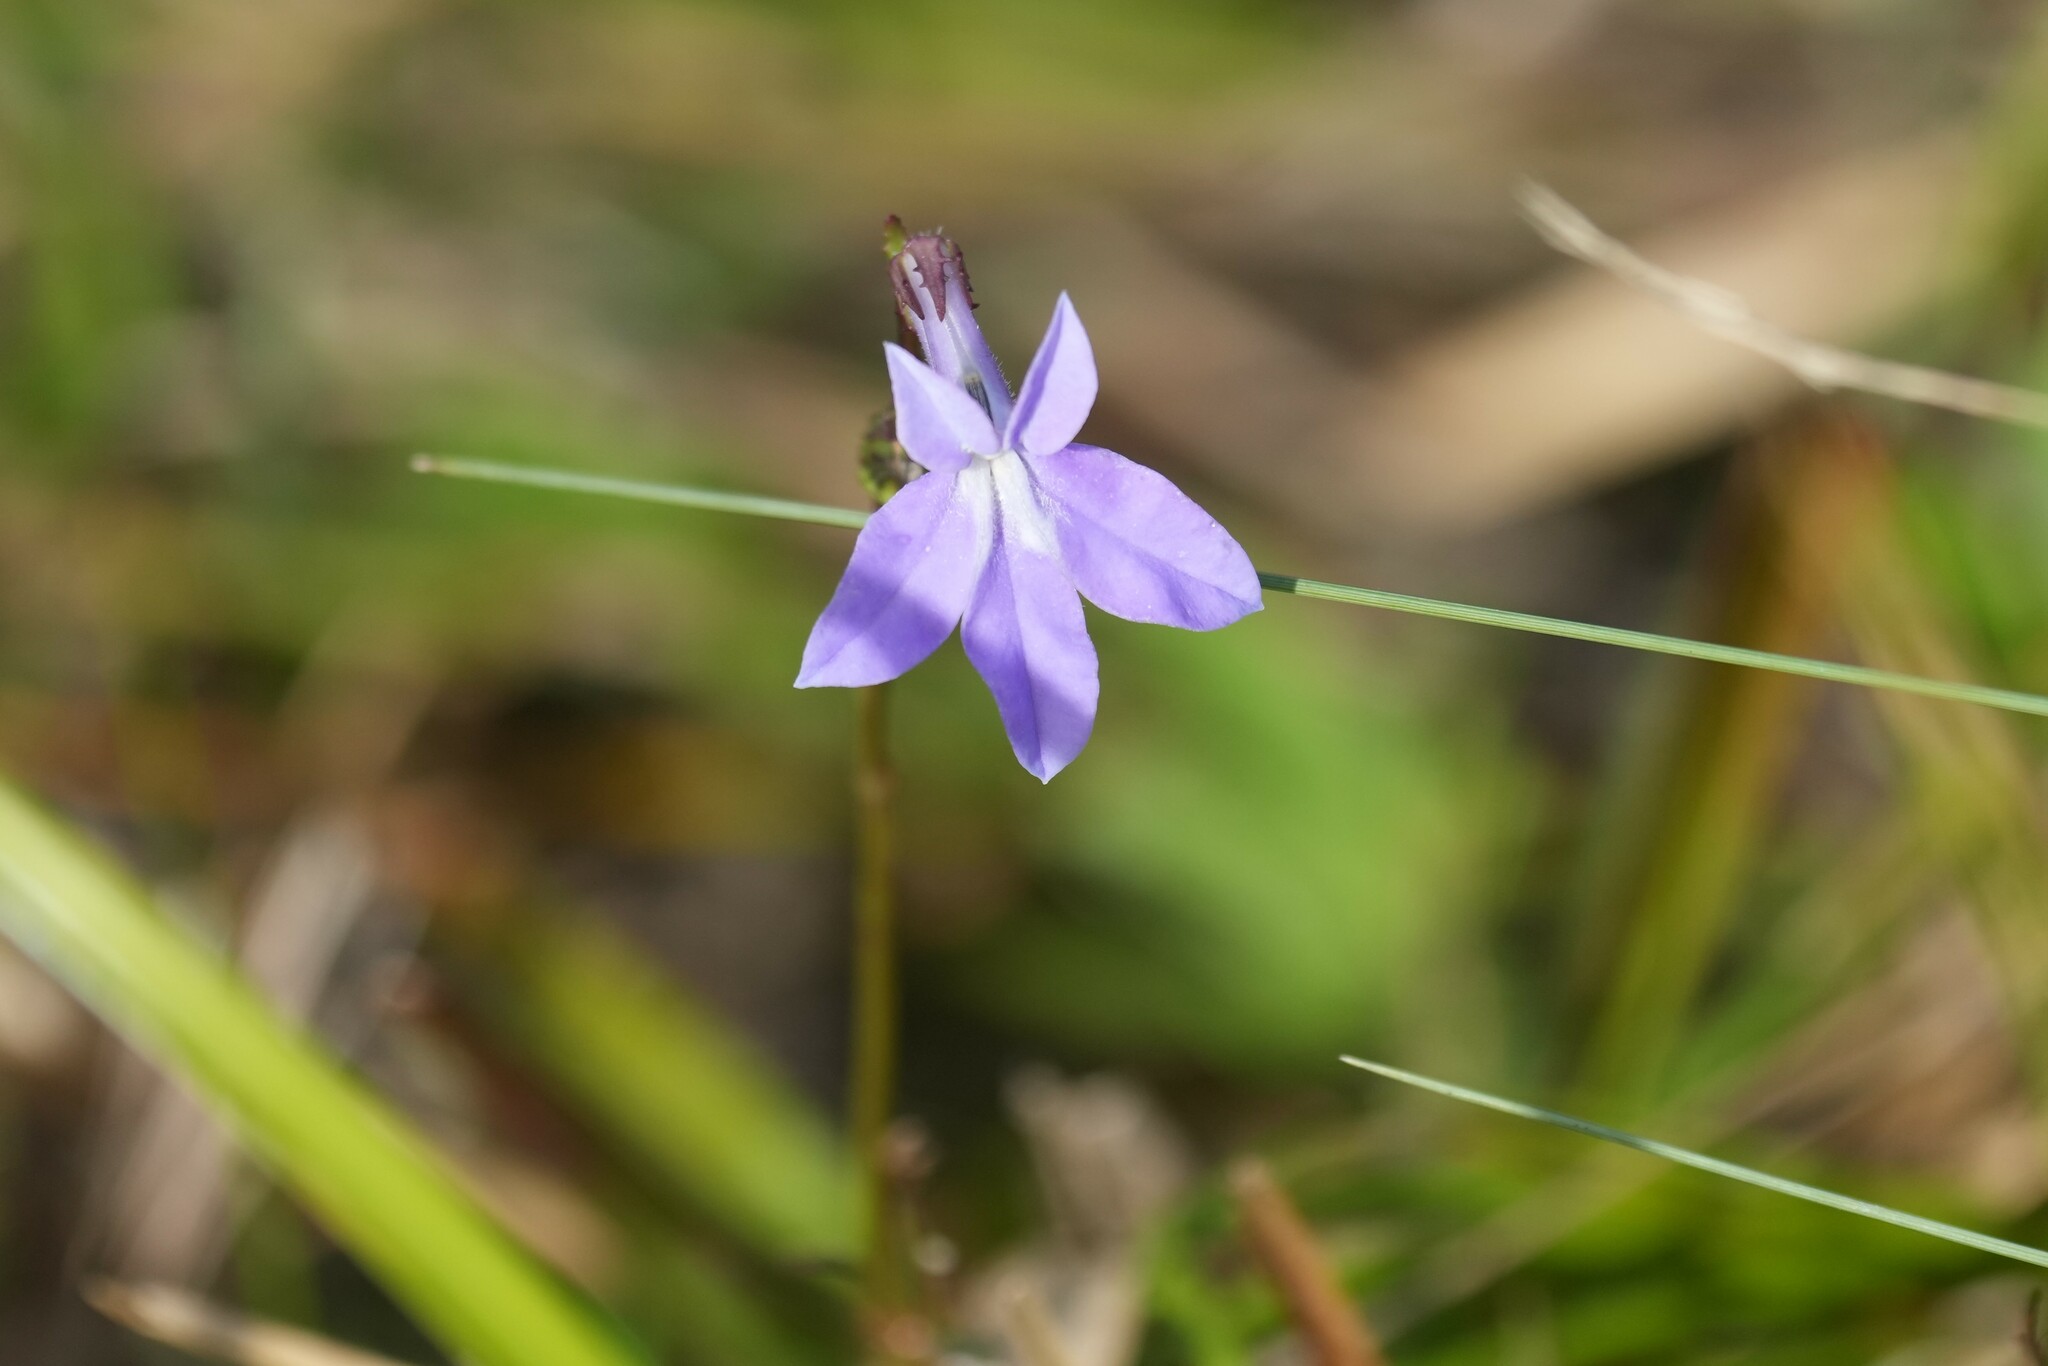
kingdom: Plantae
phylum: Tracheophyta
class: Magnoliopsida
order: Asterales
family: Campanulaceae
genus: Lobelia
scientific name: Lobelia glandulosa
